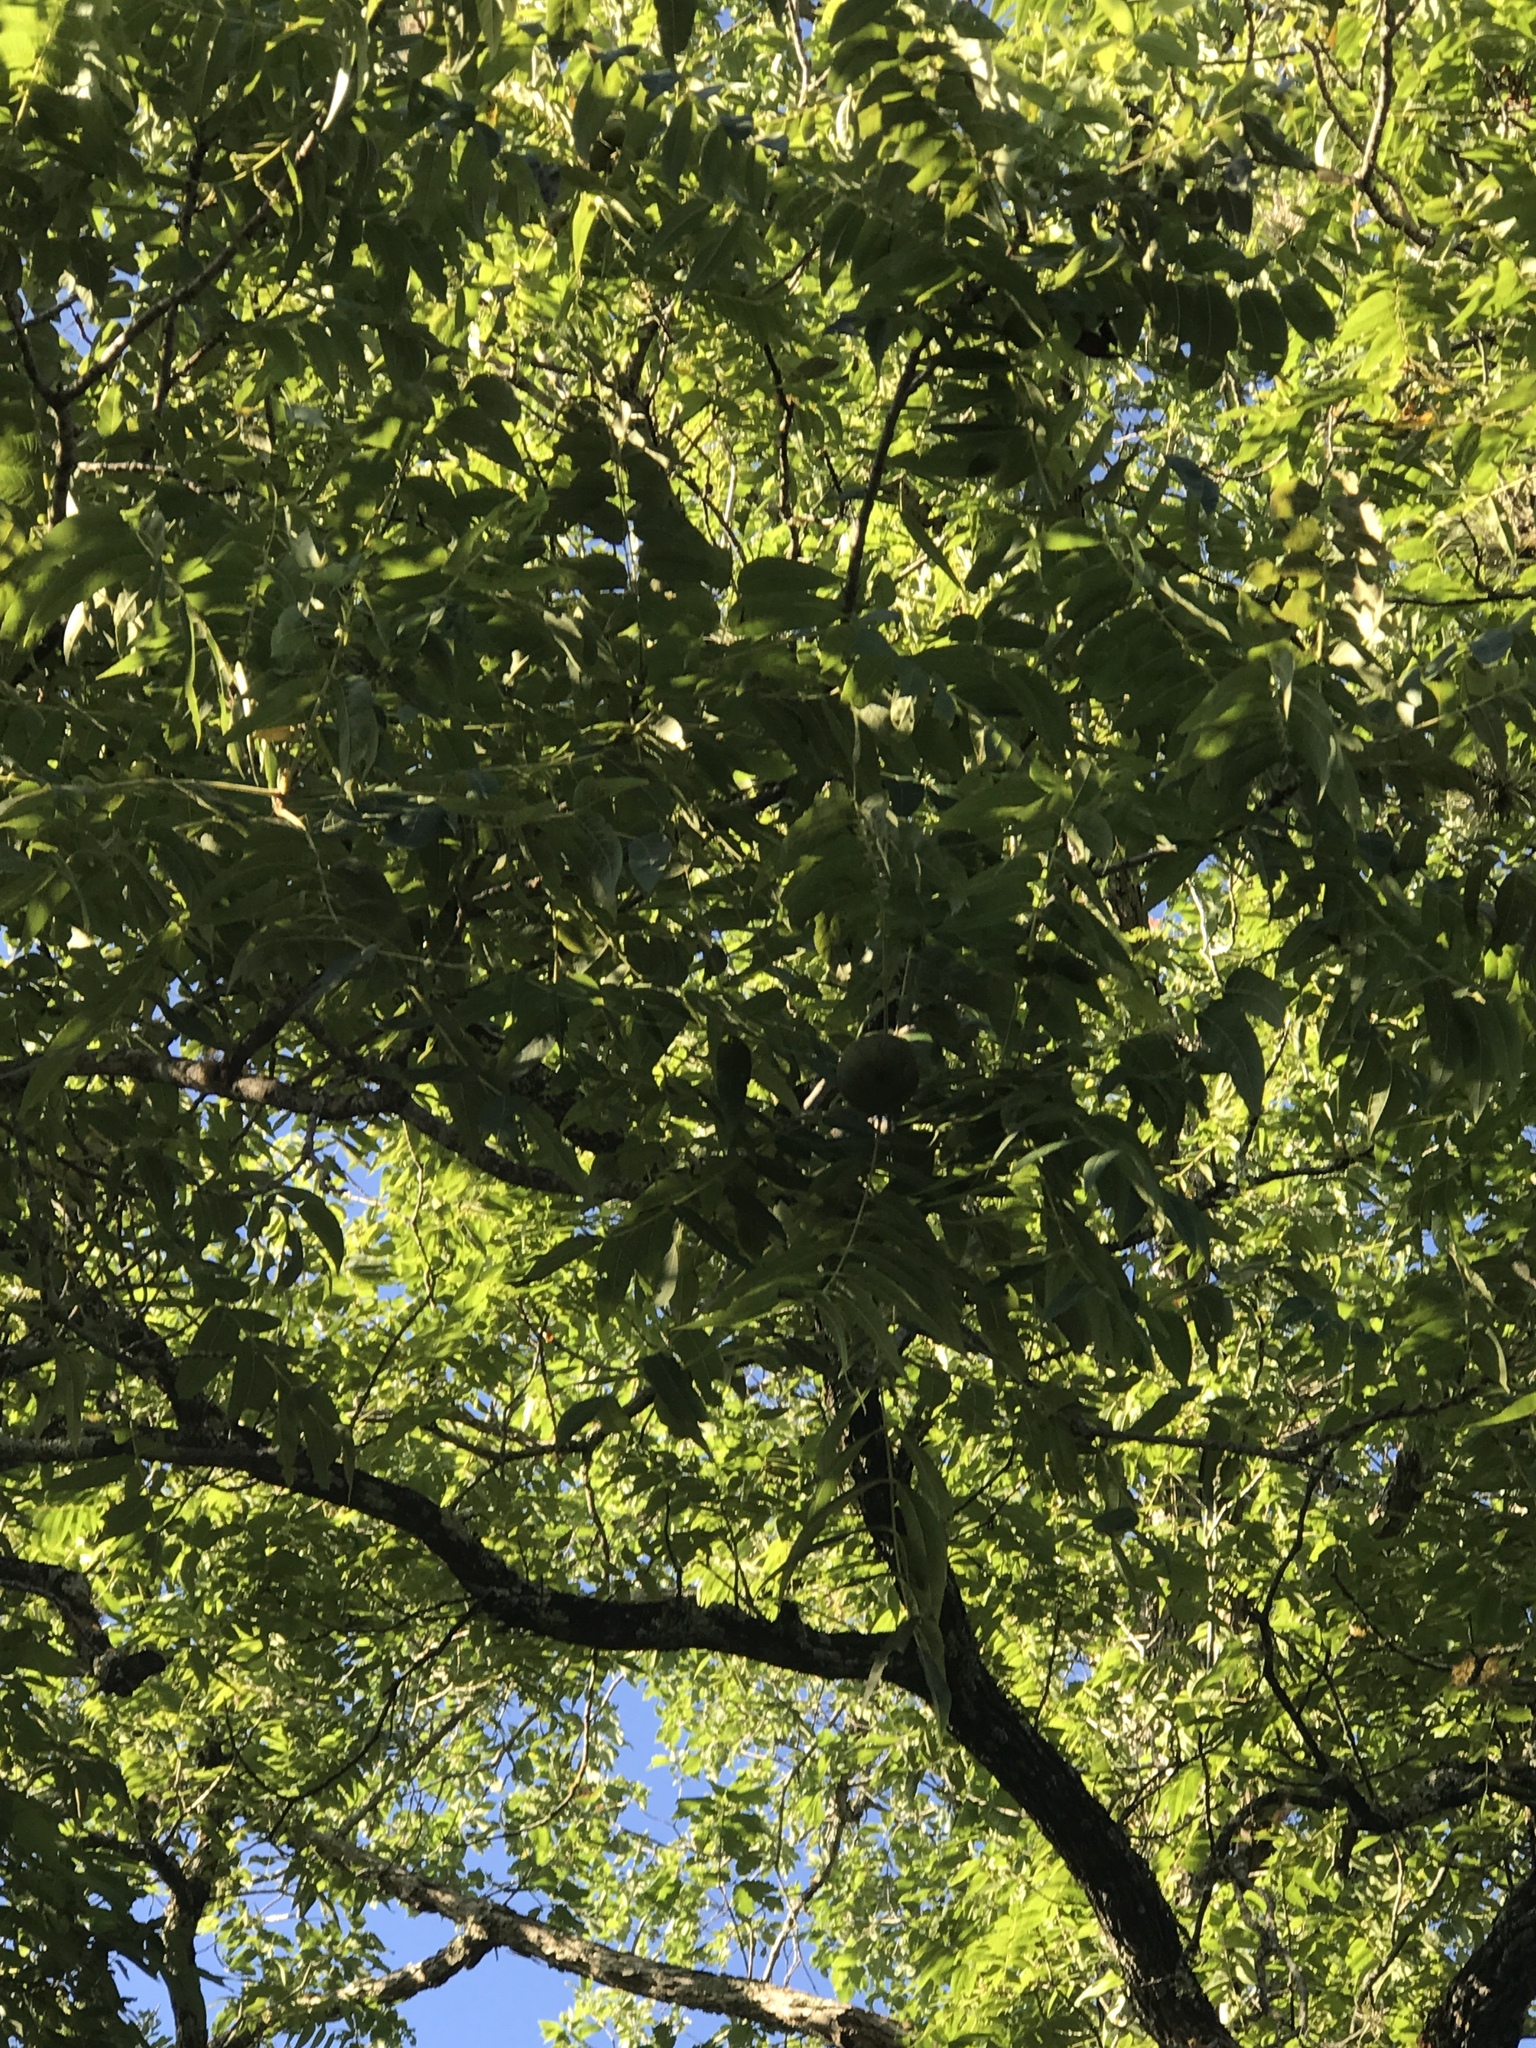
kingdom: Plantae
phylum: Tracheophyta
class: Magnoliopsida
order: Fagales
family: Juglandaceae
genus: Juglans
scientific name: Juglans major
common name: Arizona walnut
